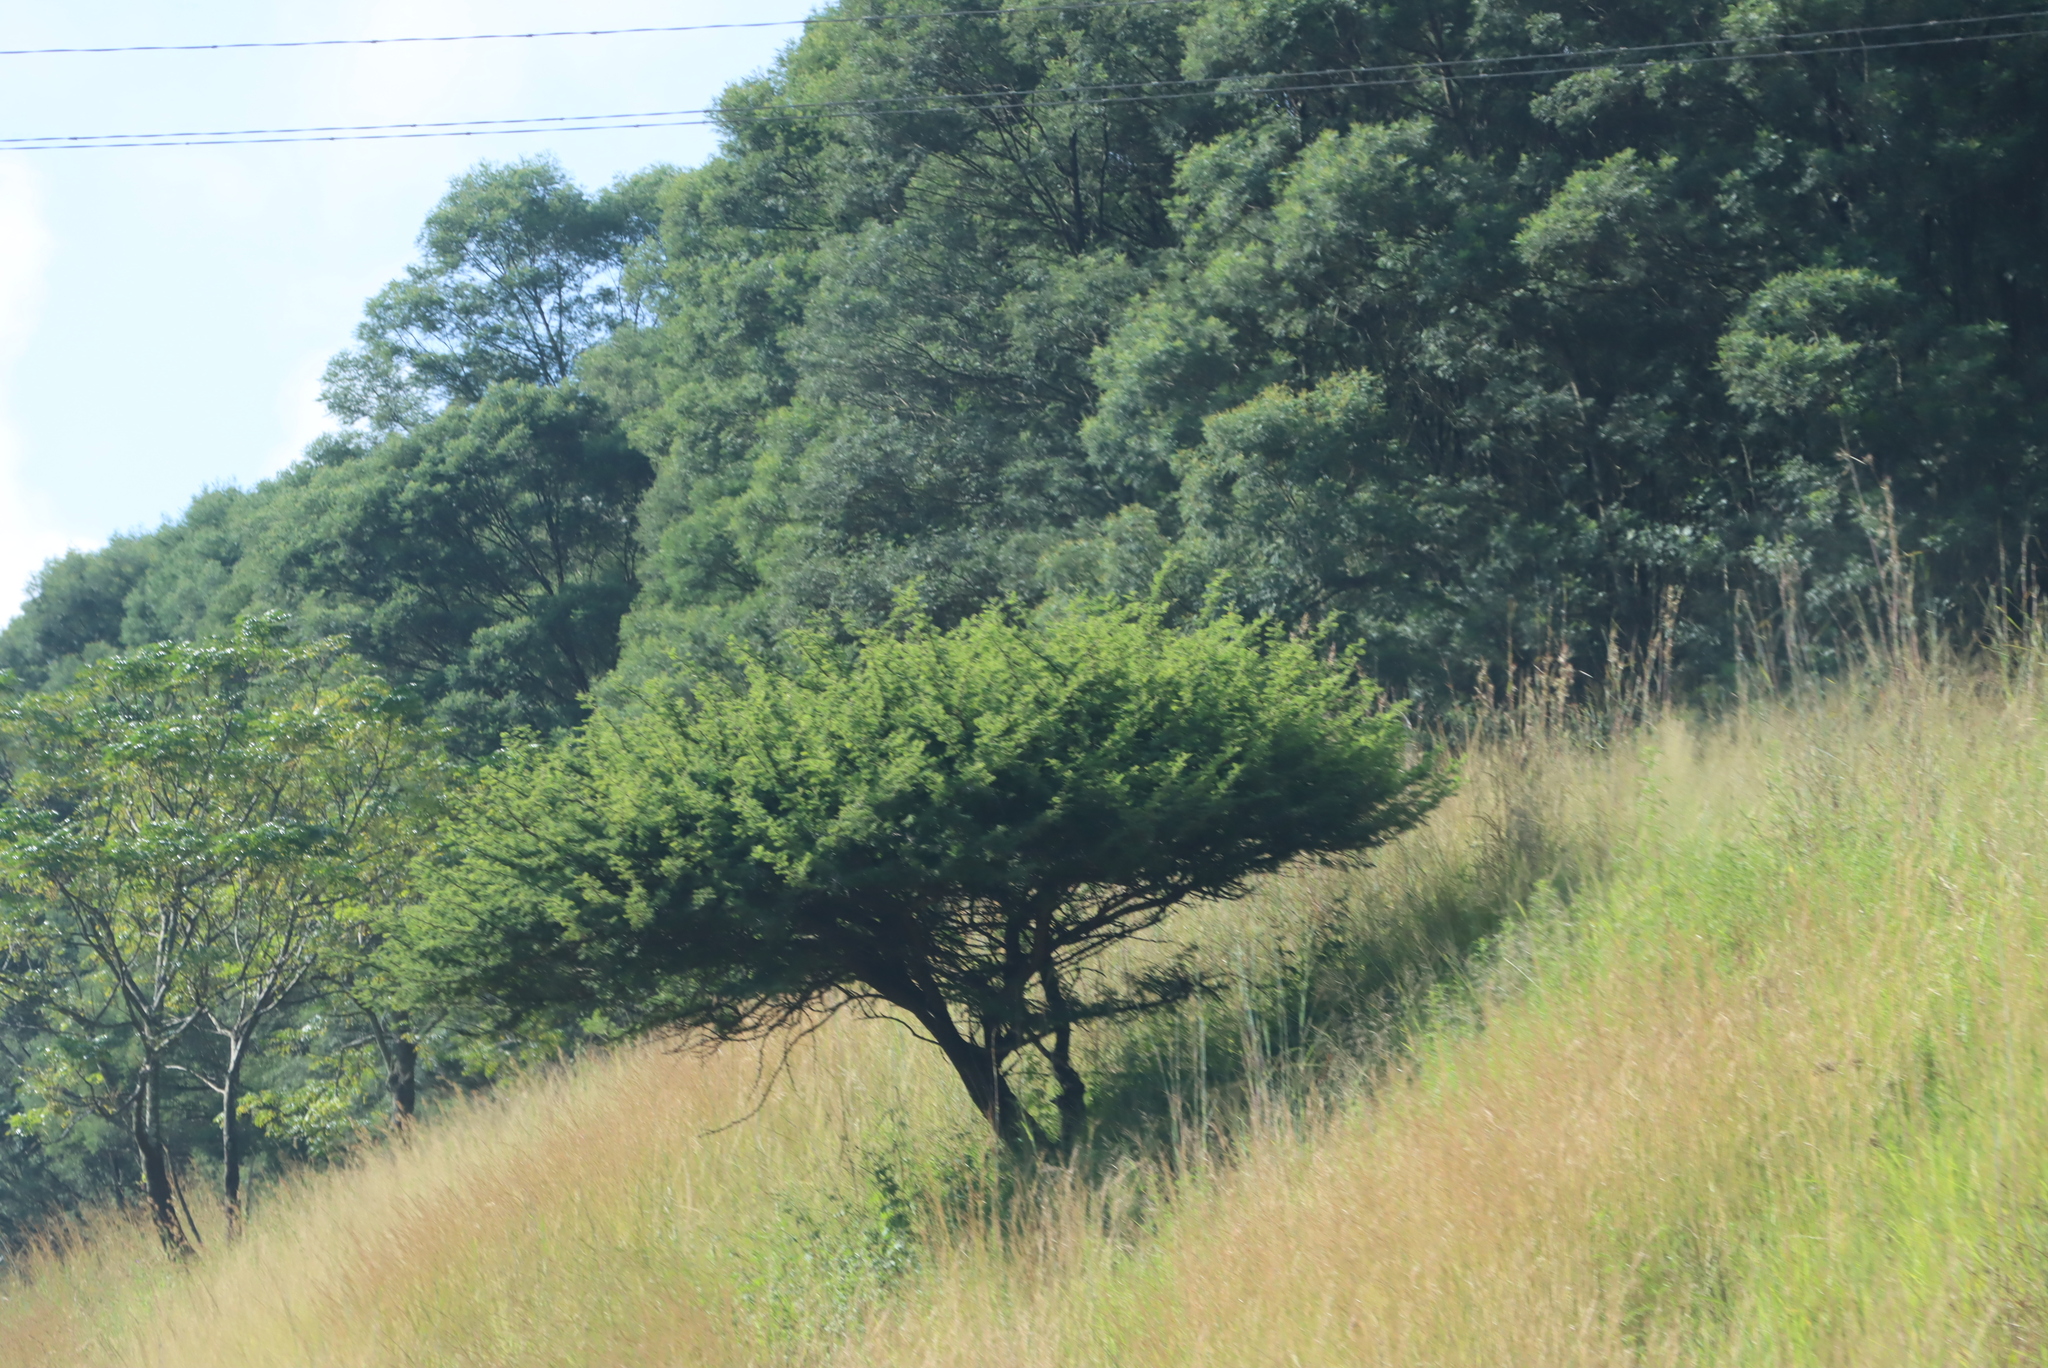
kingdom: Plantae
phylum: Tracheophyta
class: Magnoliopsida
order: Fabales
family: Fabaceae
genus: Vachellia
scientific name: Vachellia nilotica
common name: Arabic gumtree
